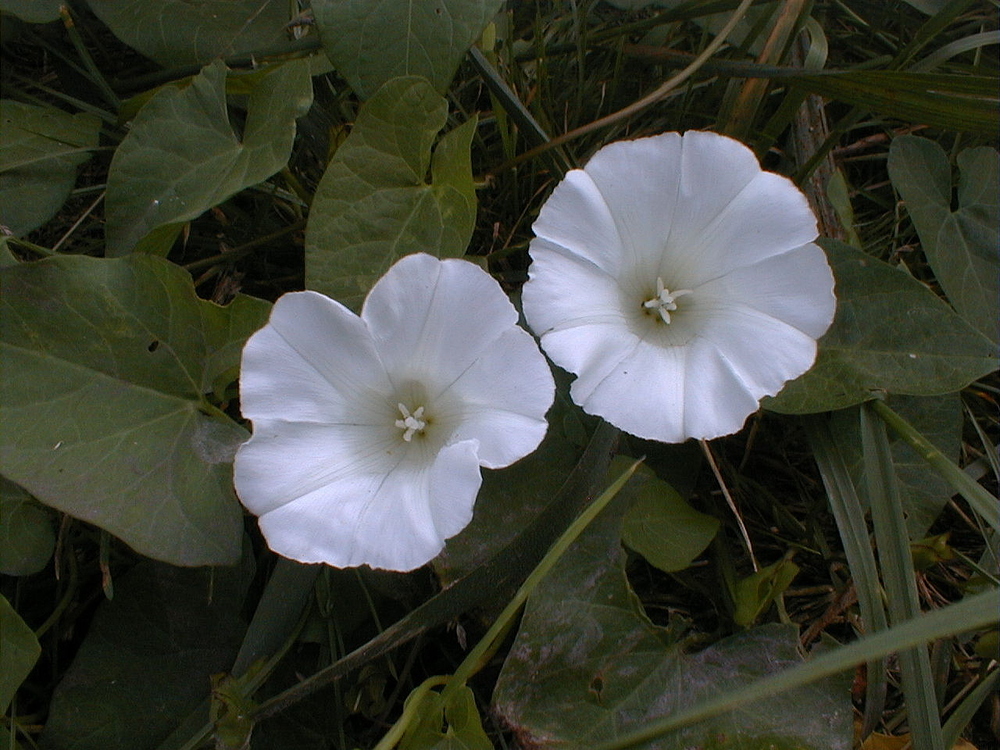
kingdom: Plantae
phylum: Tracheophyta
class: Magnoliopsida
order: Solanales
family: Convolvulaceae
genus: Calystegia
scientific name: Calystegia sepium
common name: Hedge bindweed
